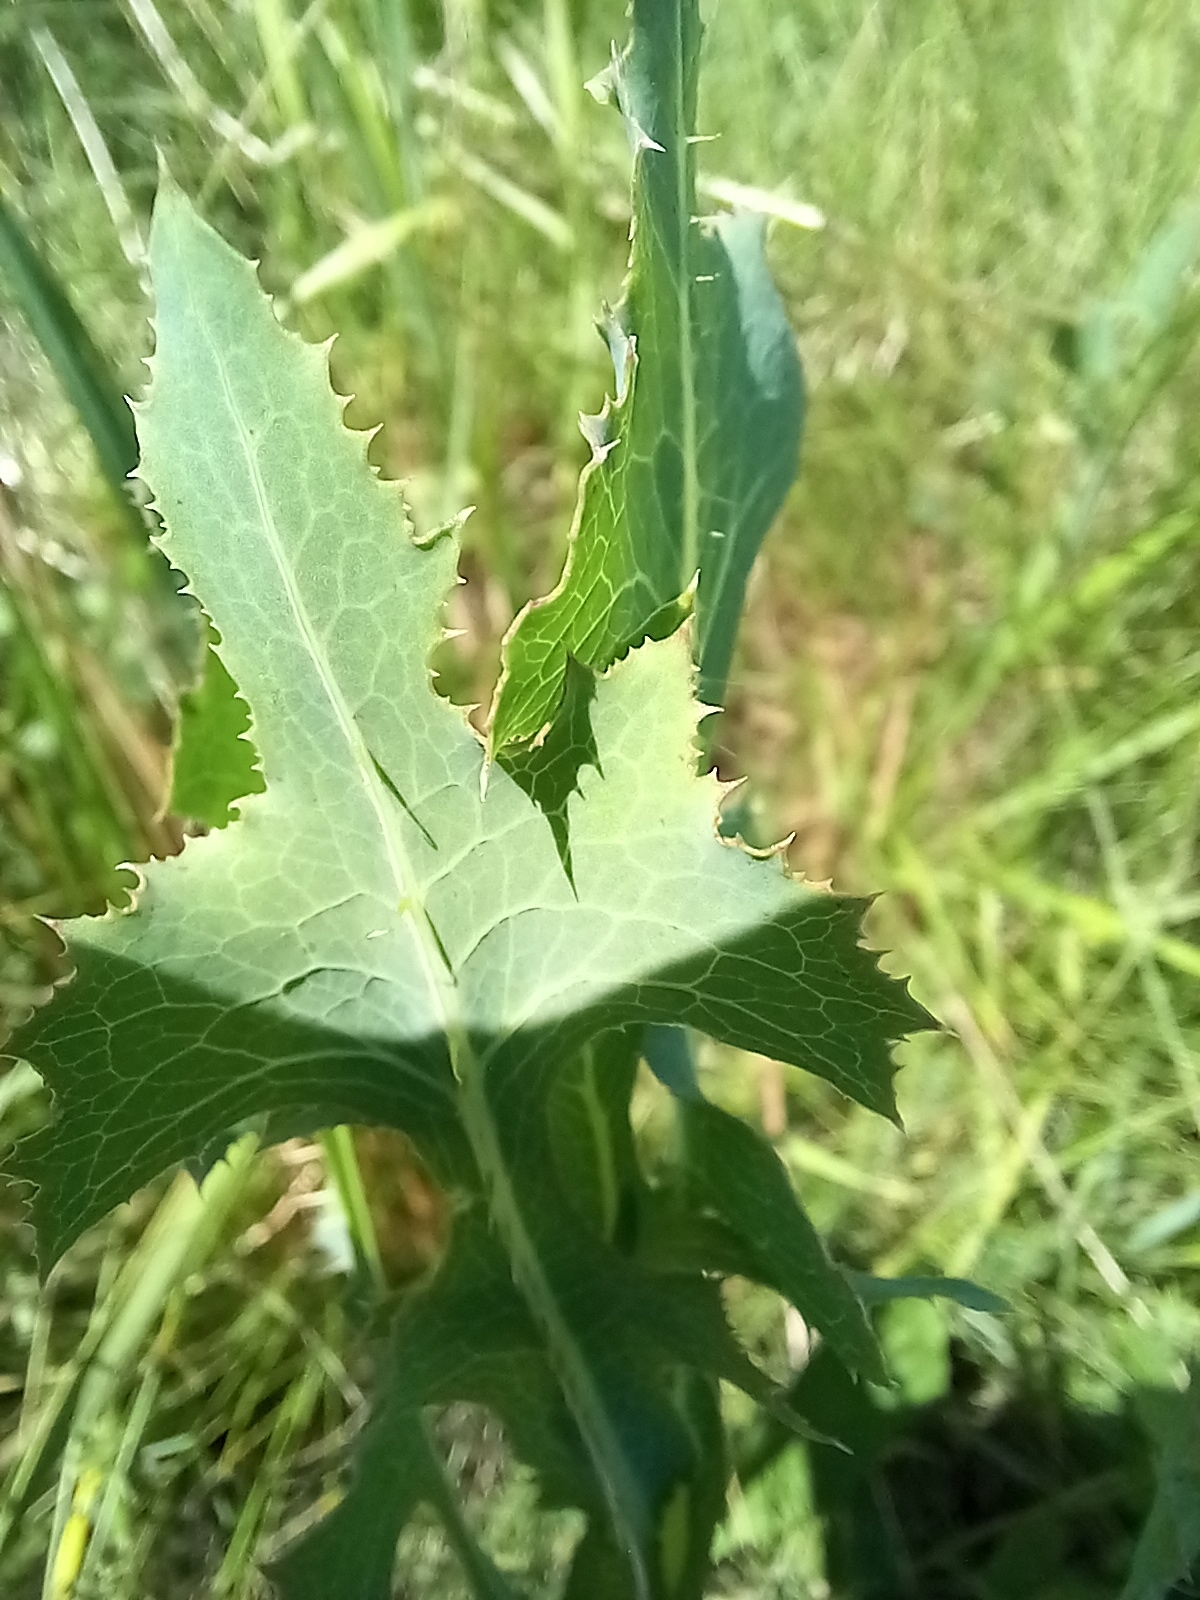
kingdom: Plantae
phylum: Tracheophyta
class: Magnoliopsida
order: Asterales
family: Asteraceae
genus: Lactuca
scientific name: Lactuca serriola
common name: Prickly lettuce
